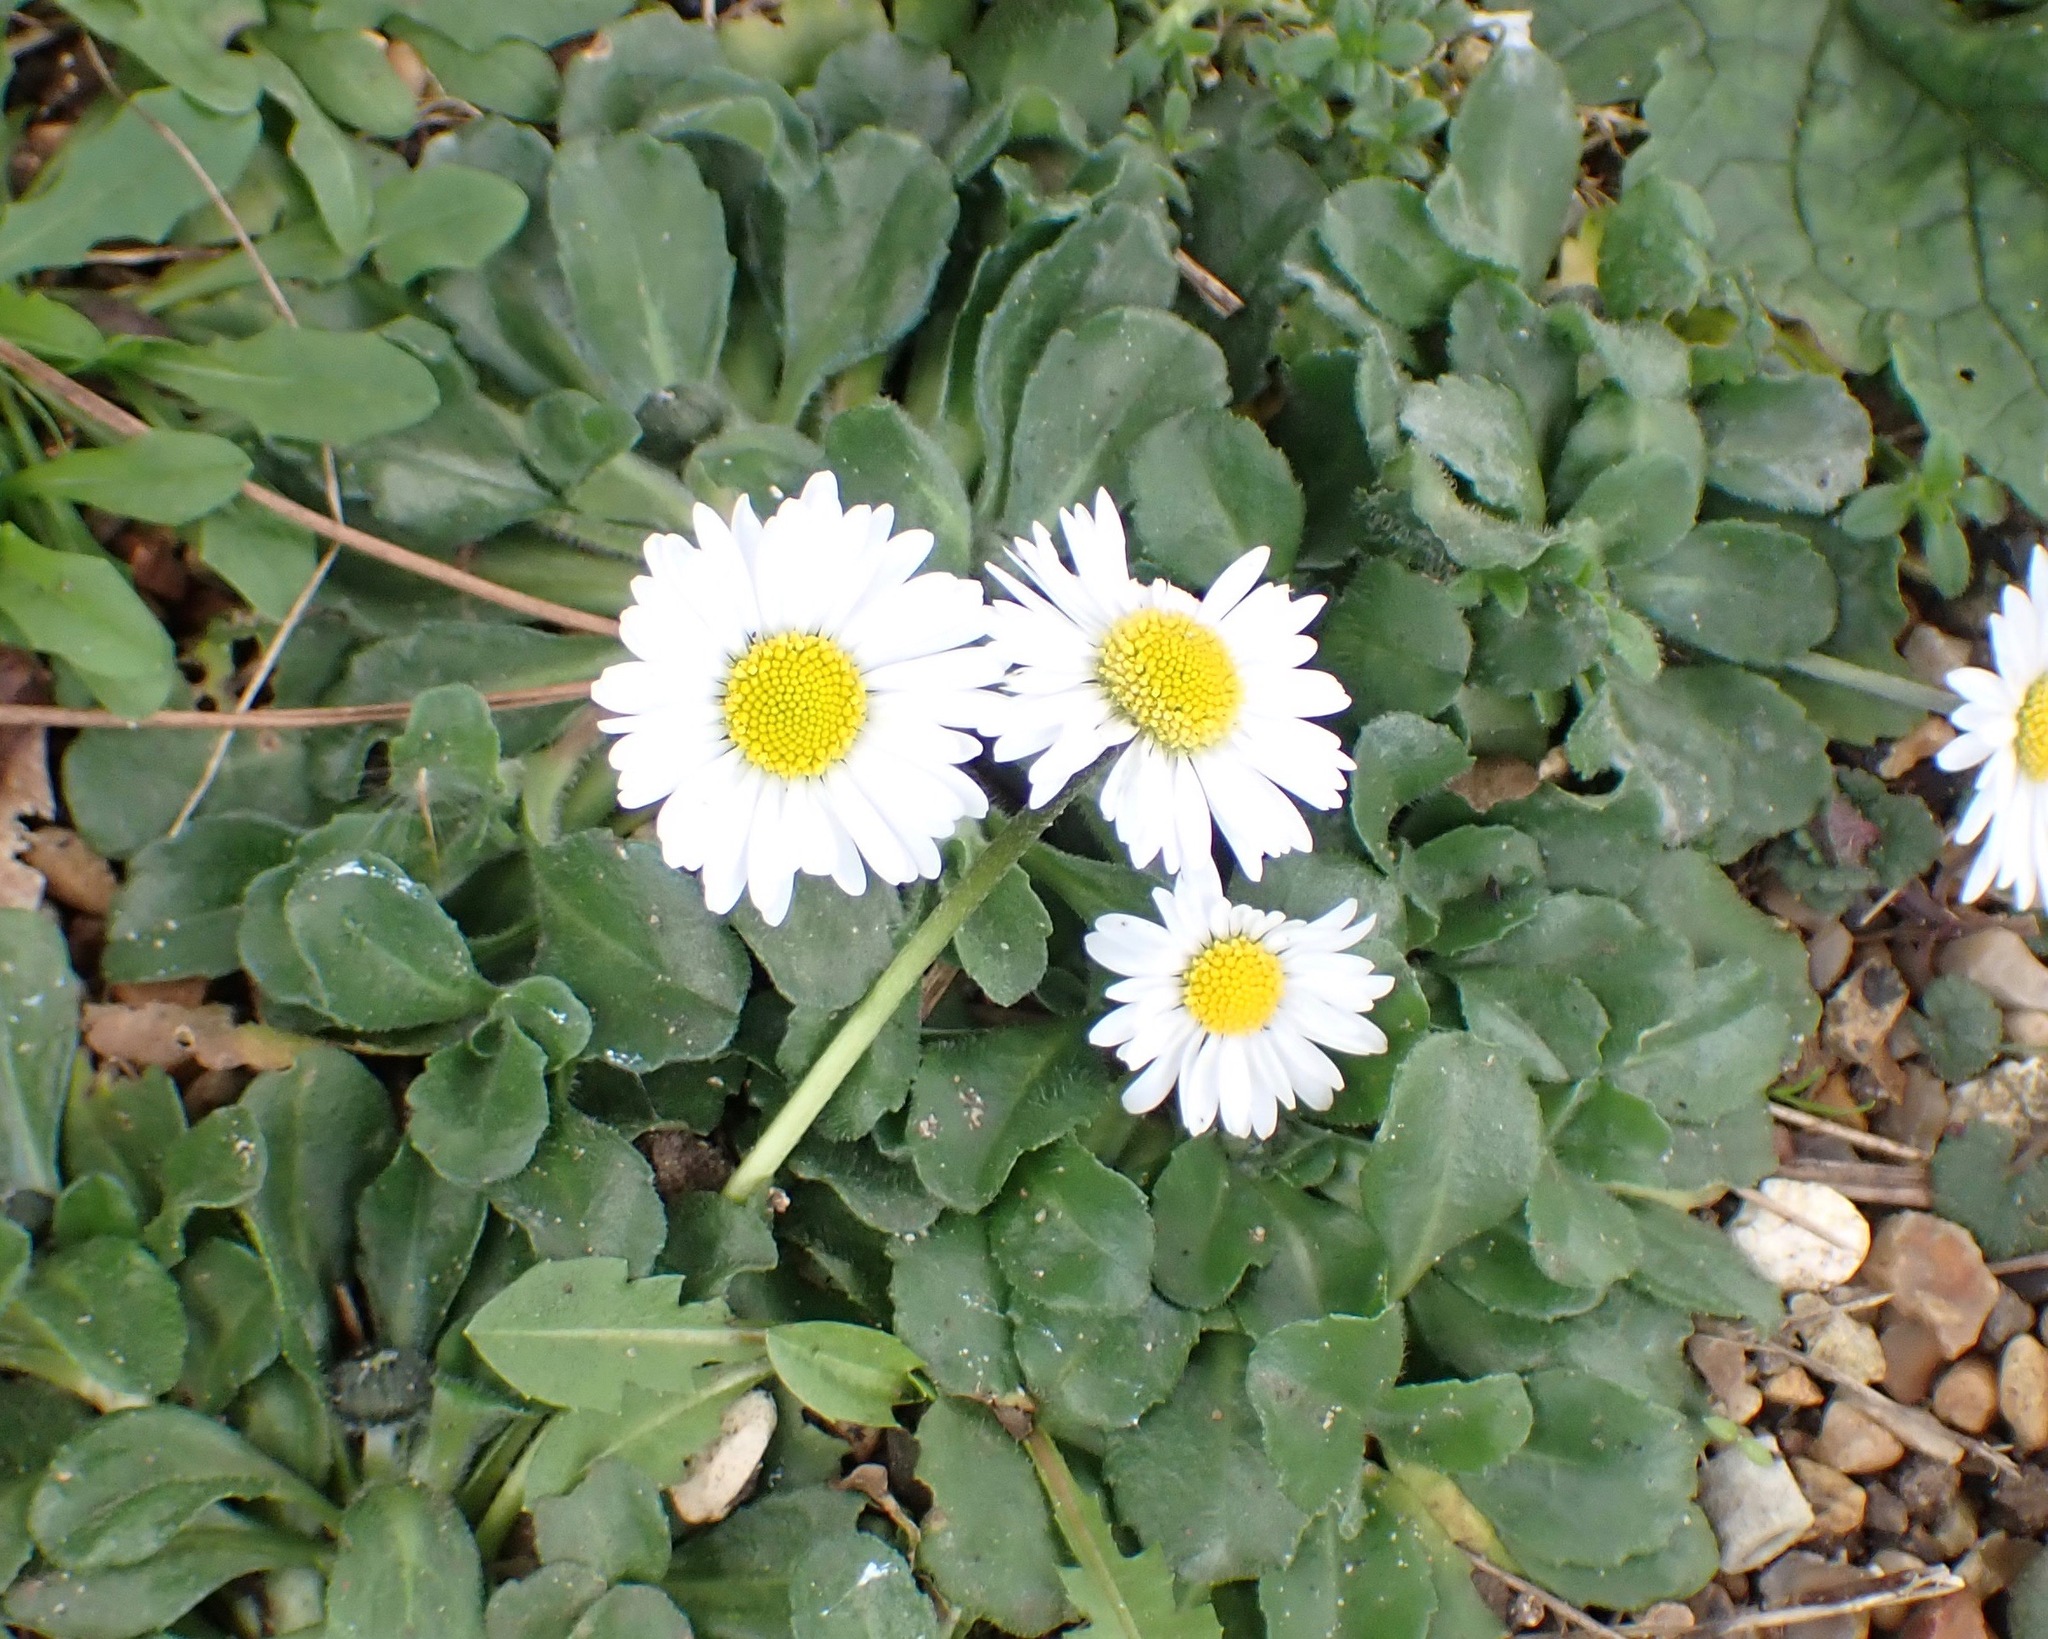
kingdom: Plantae
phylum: Tracheophyta
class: Magnoliopsida
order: Asterales
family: Asteraceae
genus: Bellis
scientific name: Bellis perennis
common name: Lawndaisy
